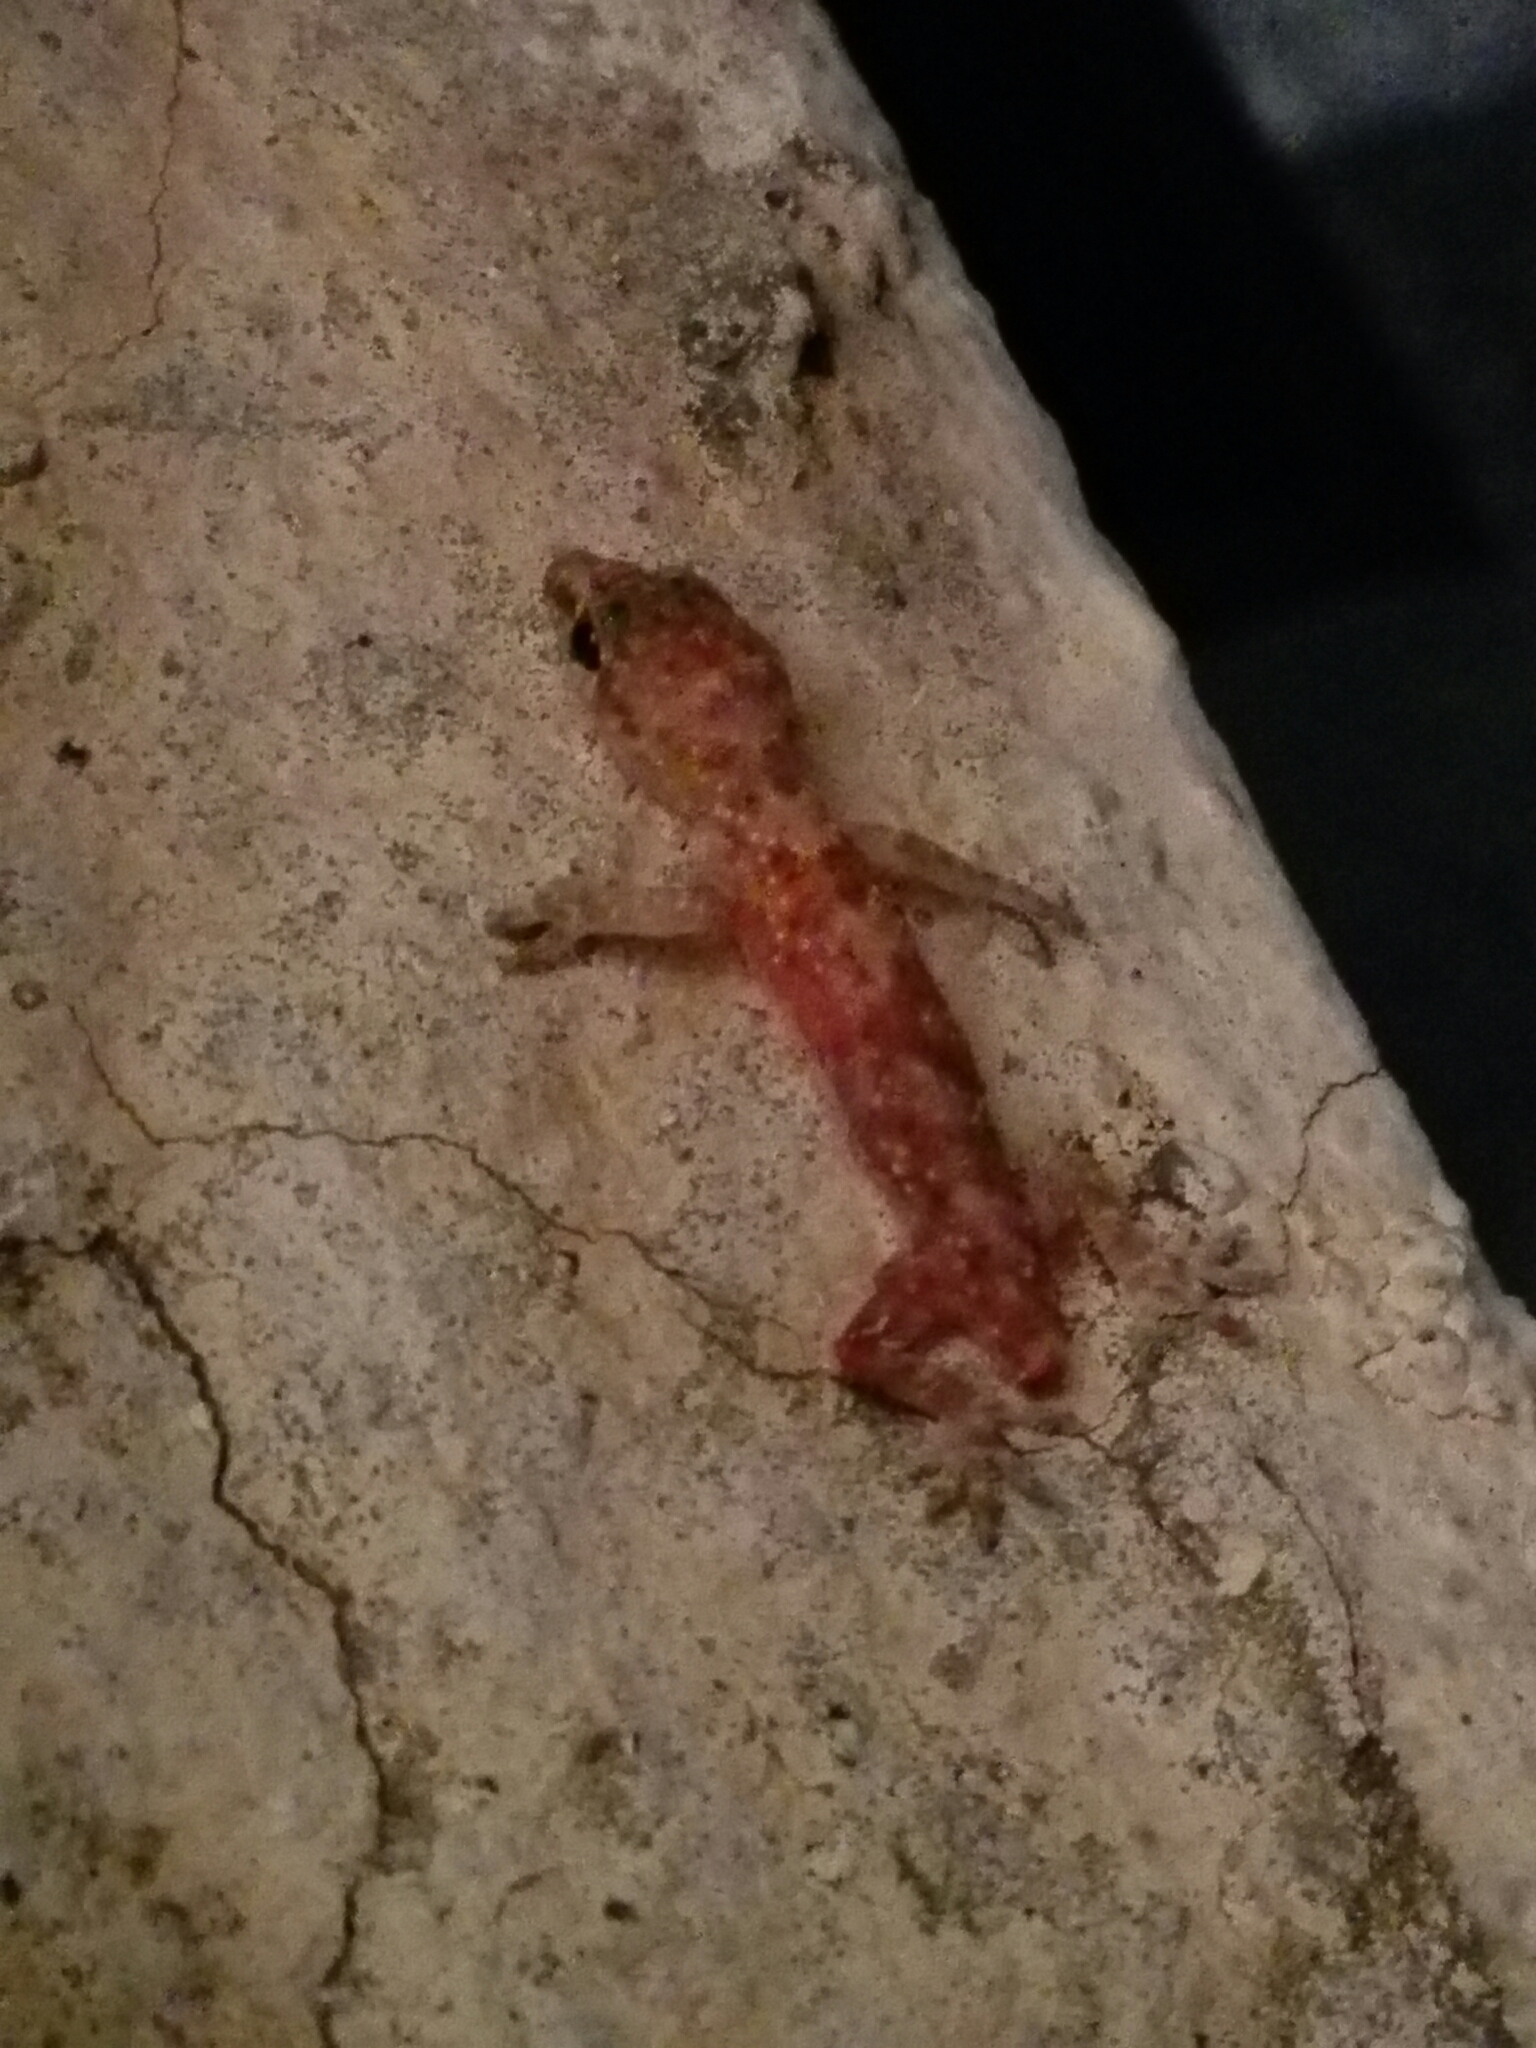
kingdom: Animalia
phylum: Chordata
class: Squamata
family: Gekkonidae
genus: Hemidactylus
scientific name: Hemidactylus turcicus
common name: Turkish gecko
